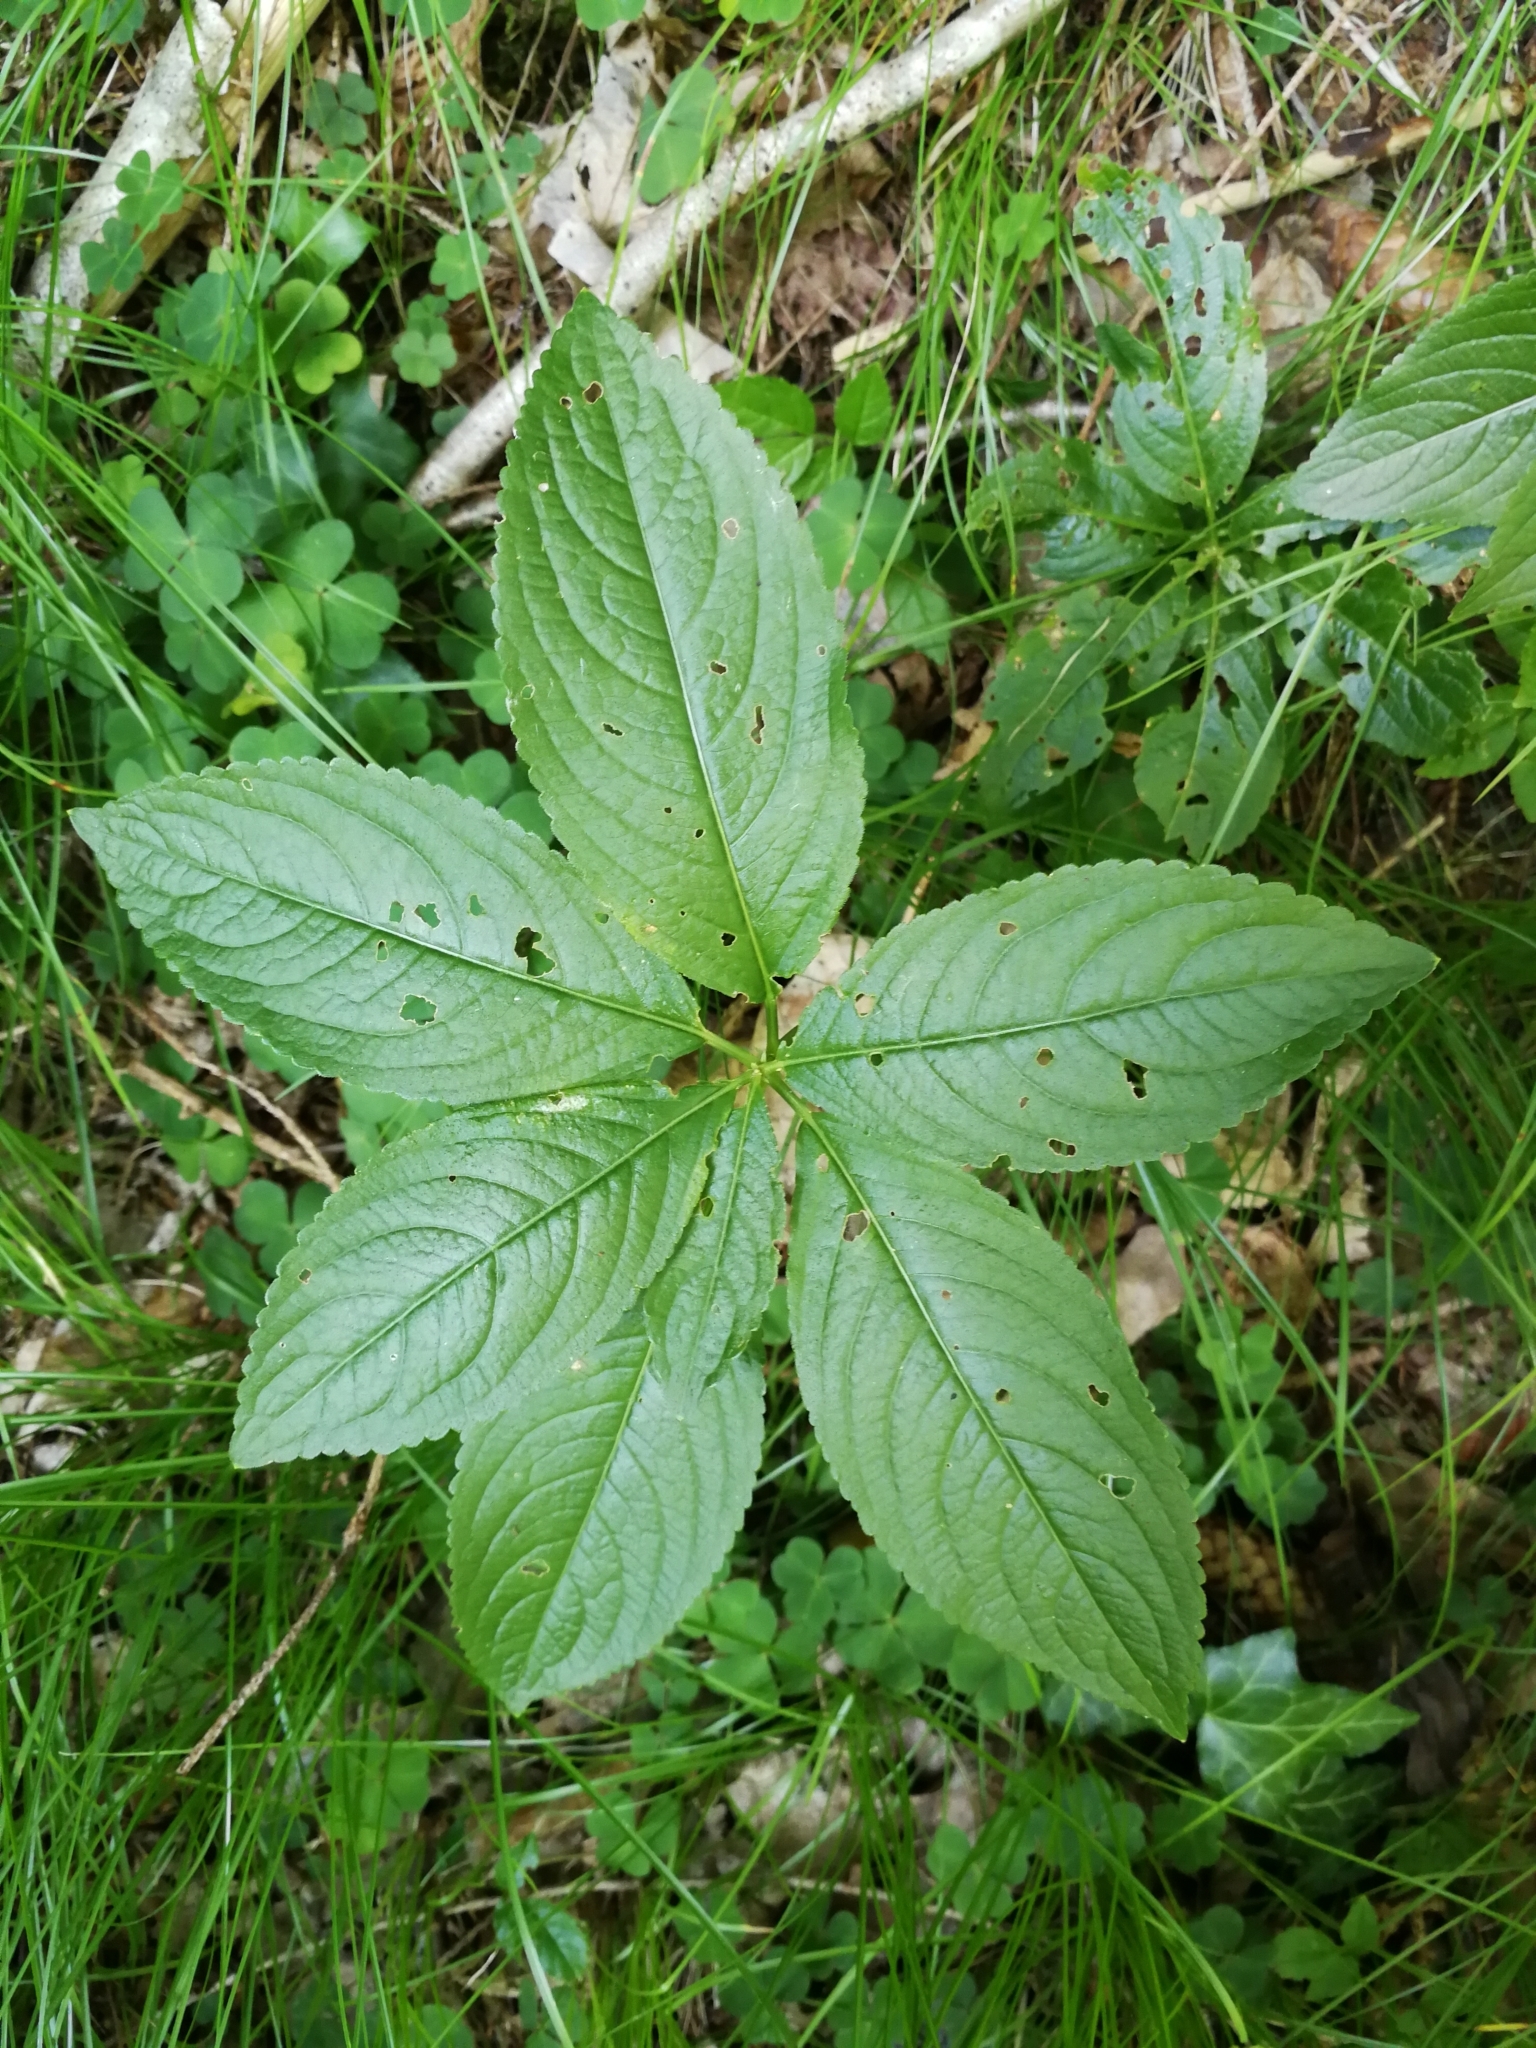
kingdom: Plantae
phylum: Tracheophyta
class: Magnoliopsida
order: Malpighiales
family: Euphorbiaceae
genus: Mercurialis
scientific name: Mercurialis perennis
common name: Dog mercury
